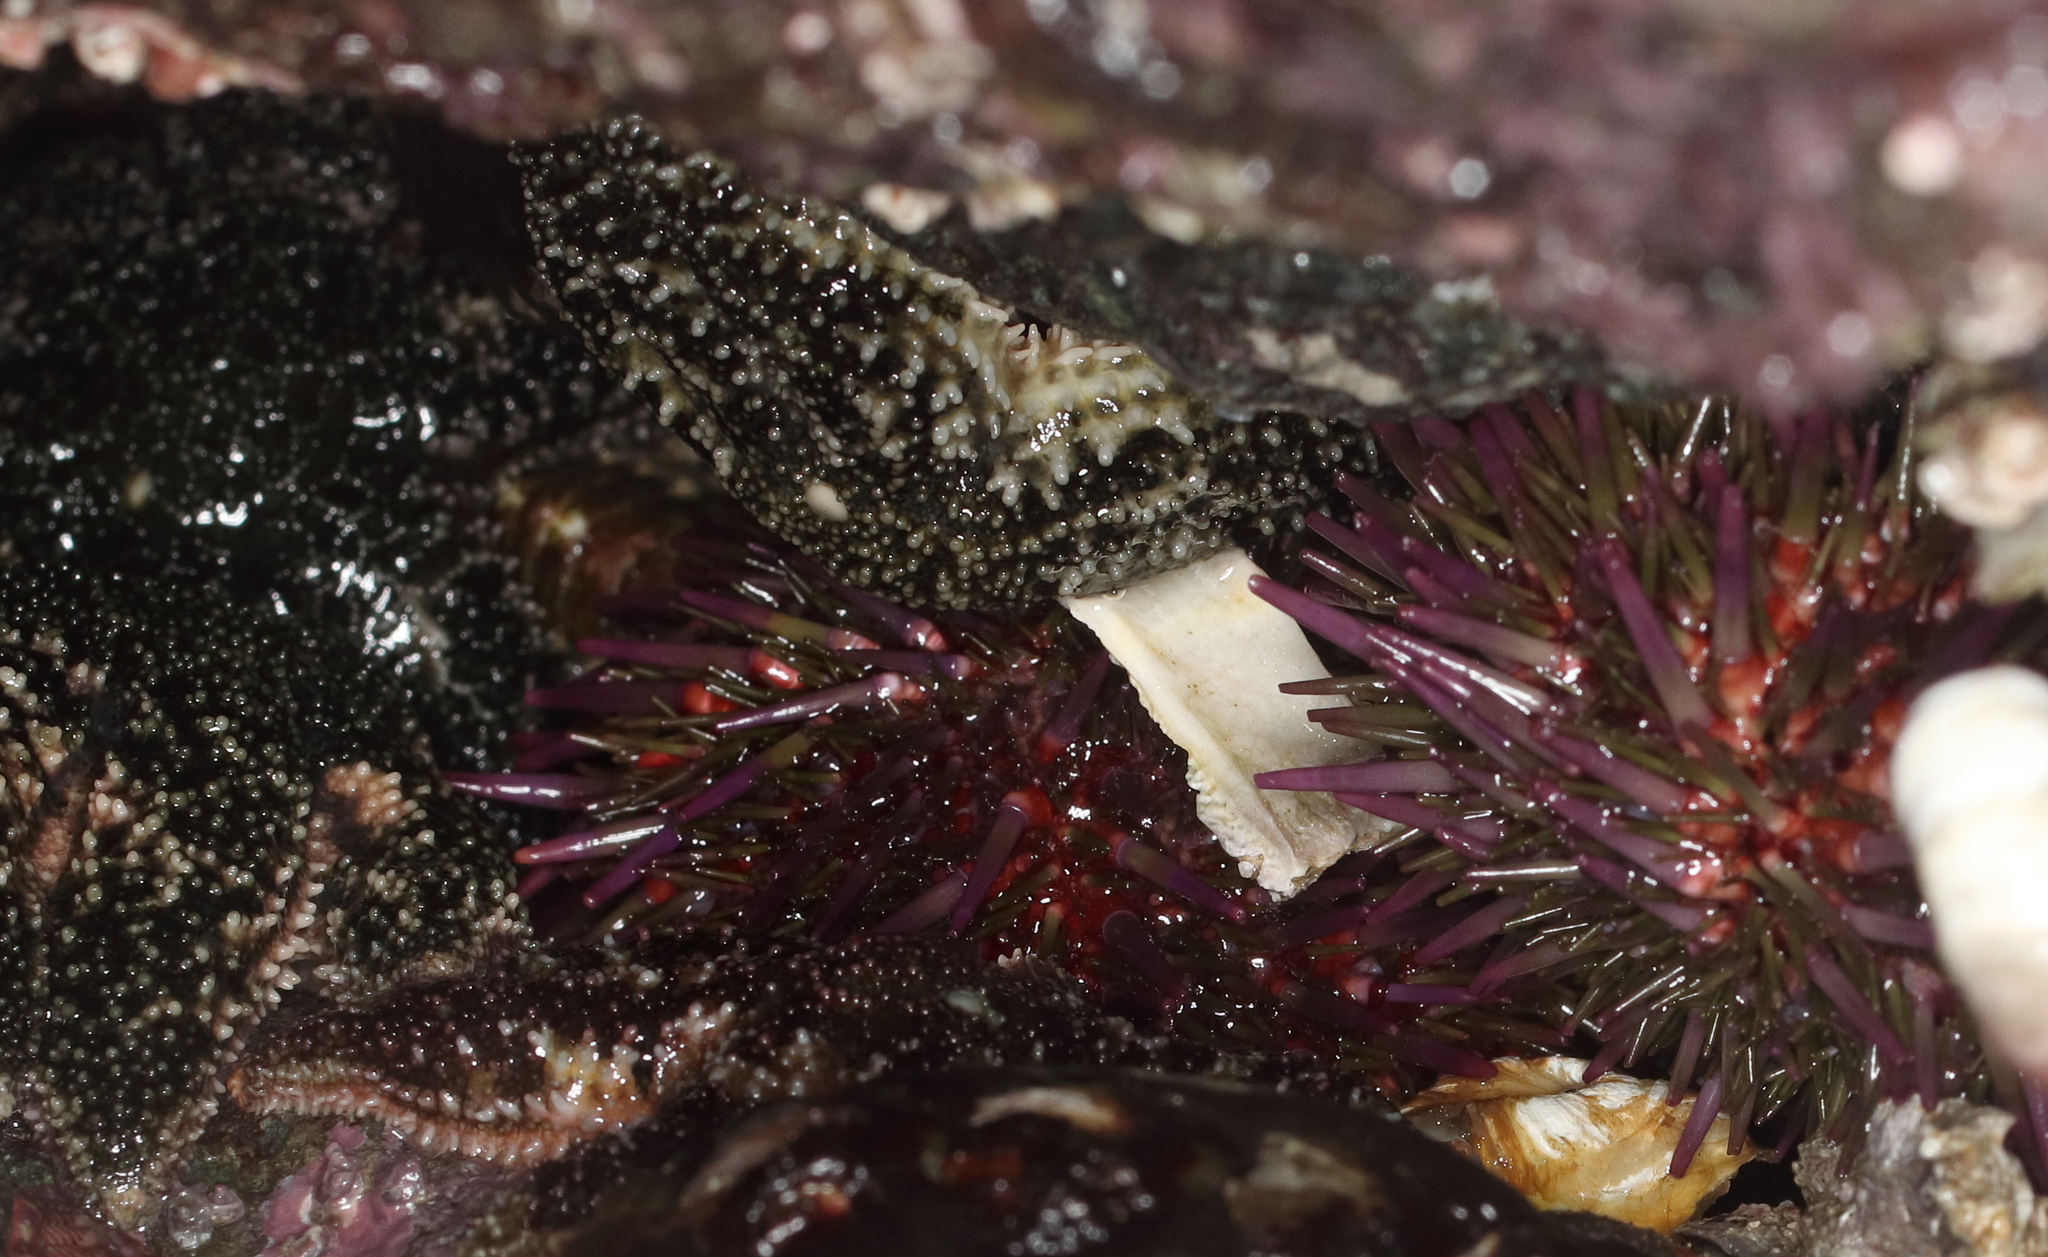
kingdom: Animalia
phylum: Echinodermata
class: Echinoidea
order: Camarodonta
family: Strongylocentrotidae
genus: Strongylocentrotus
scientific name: Strongylocentrotus purpuratus
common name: Purple sea urchin
